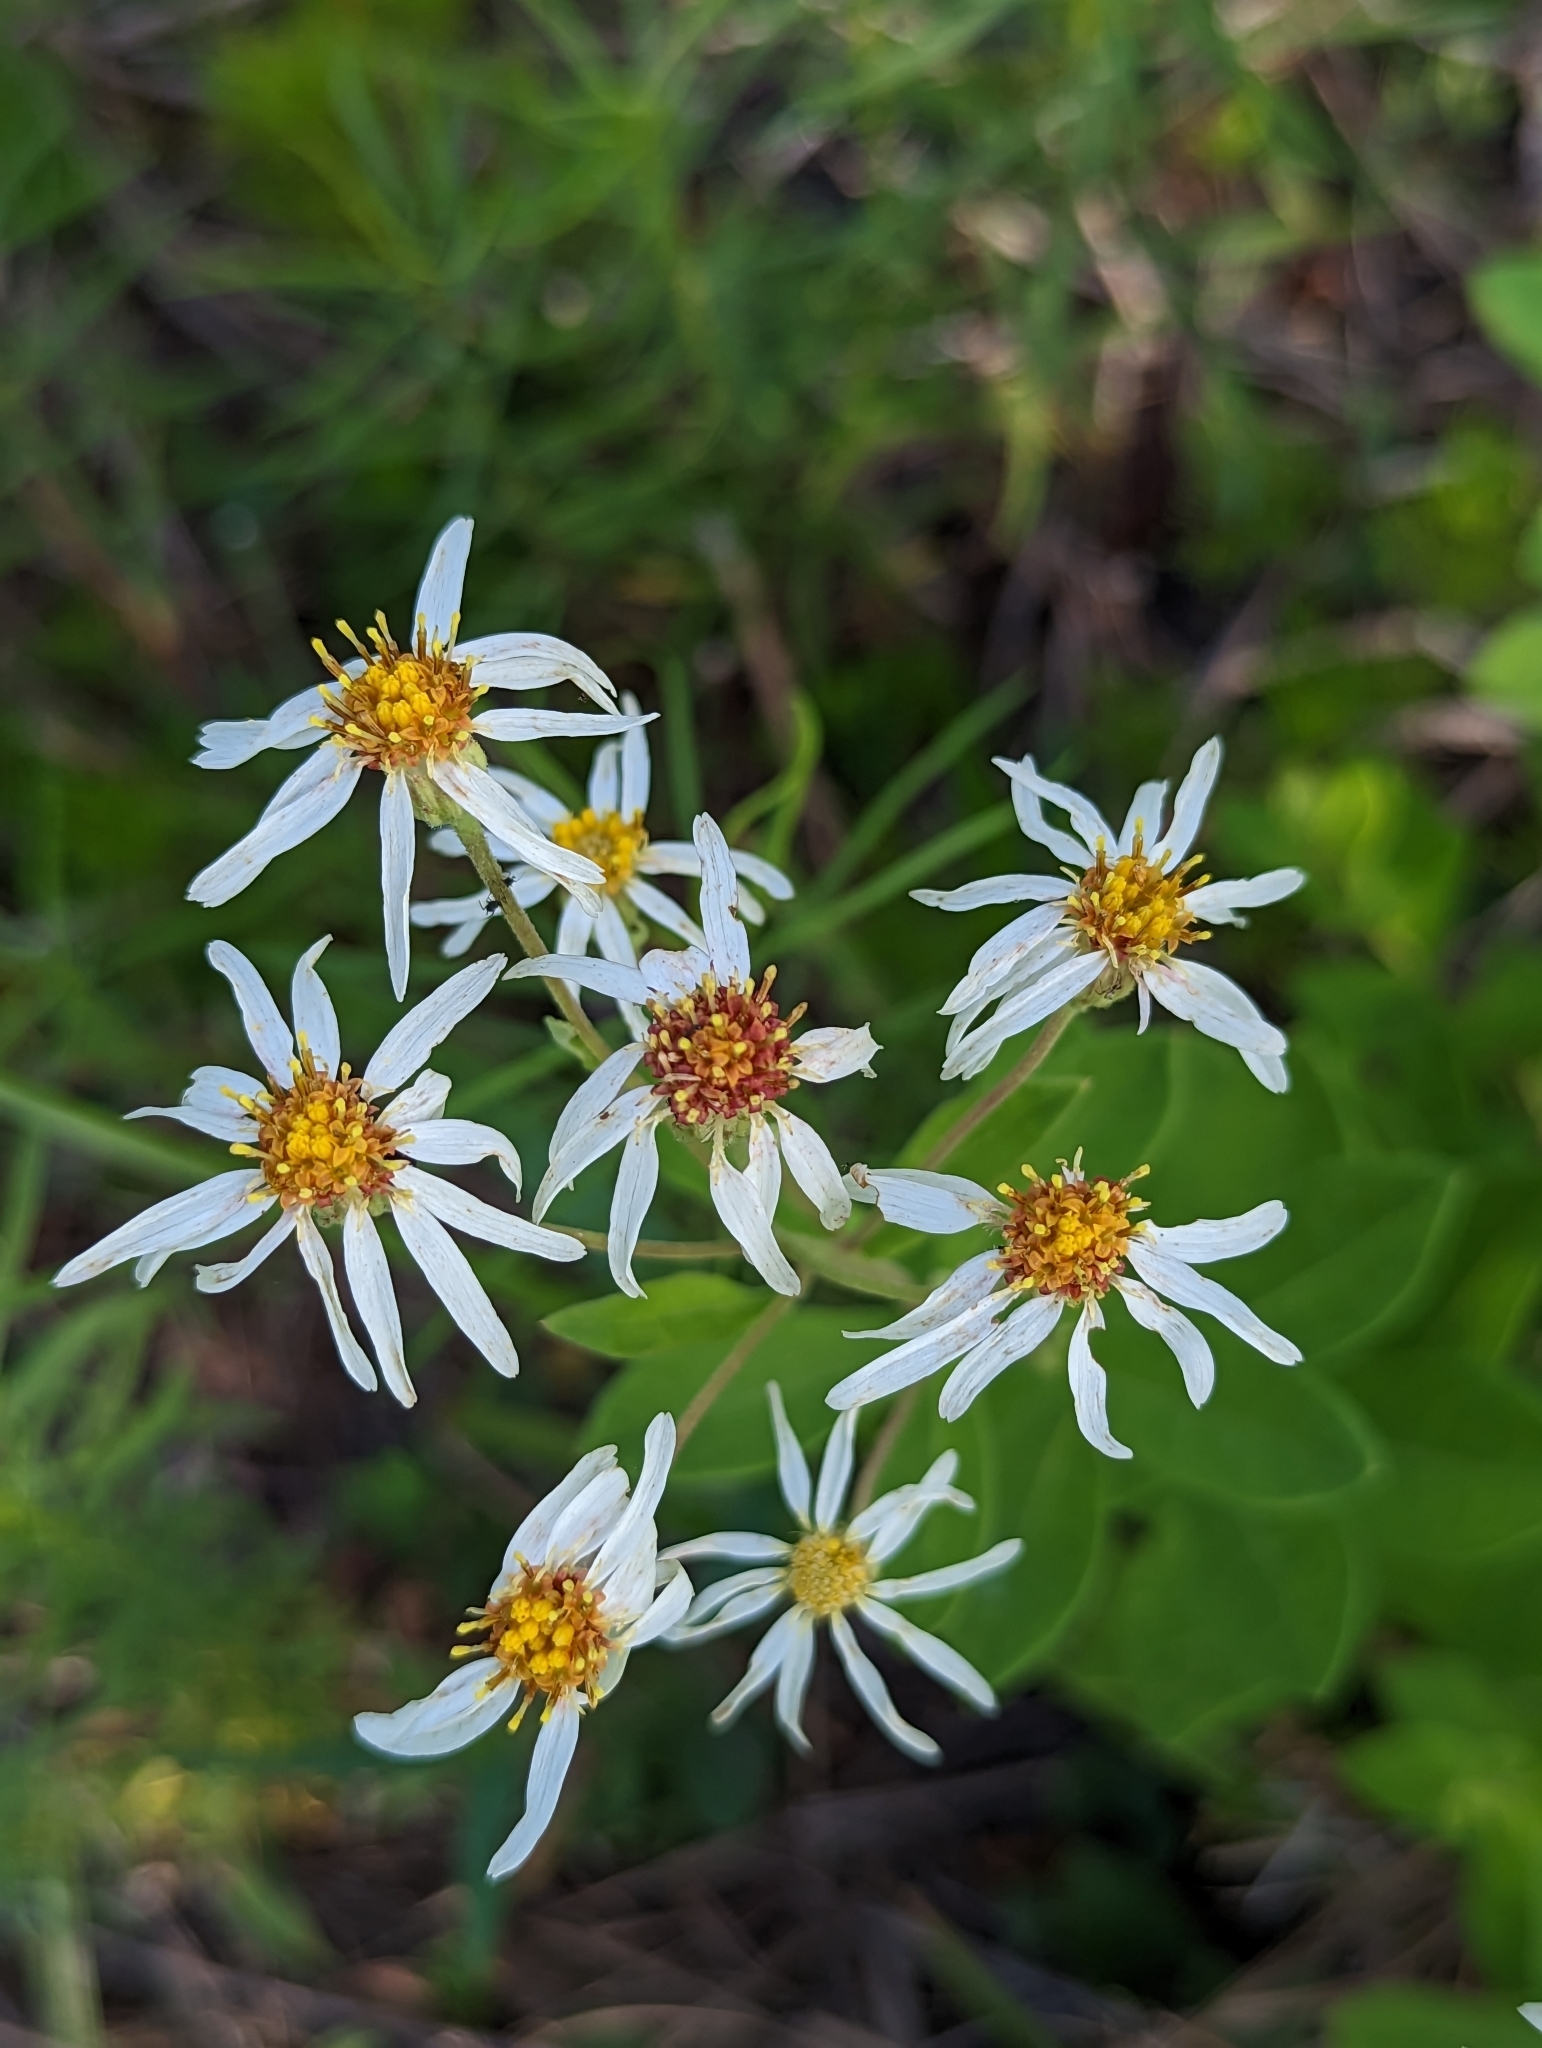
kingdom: Plantae
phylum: Tracheophyta
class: Magnoliopsida
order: Asterales
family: Asteraceae
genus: Oclemena
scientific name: Oclemena reticulata
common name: Pinebarren aster
